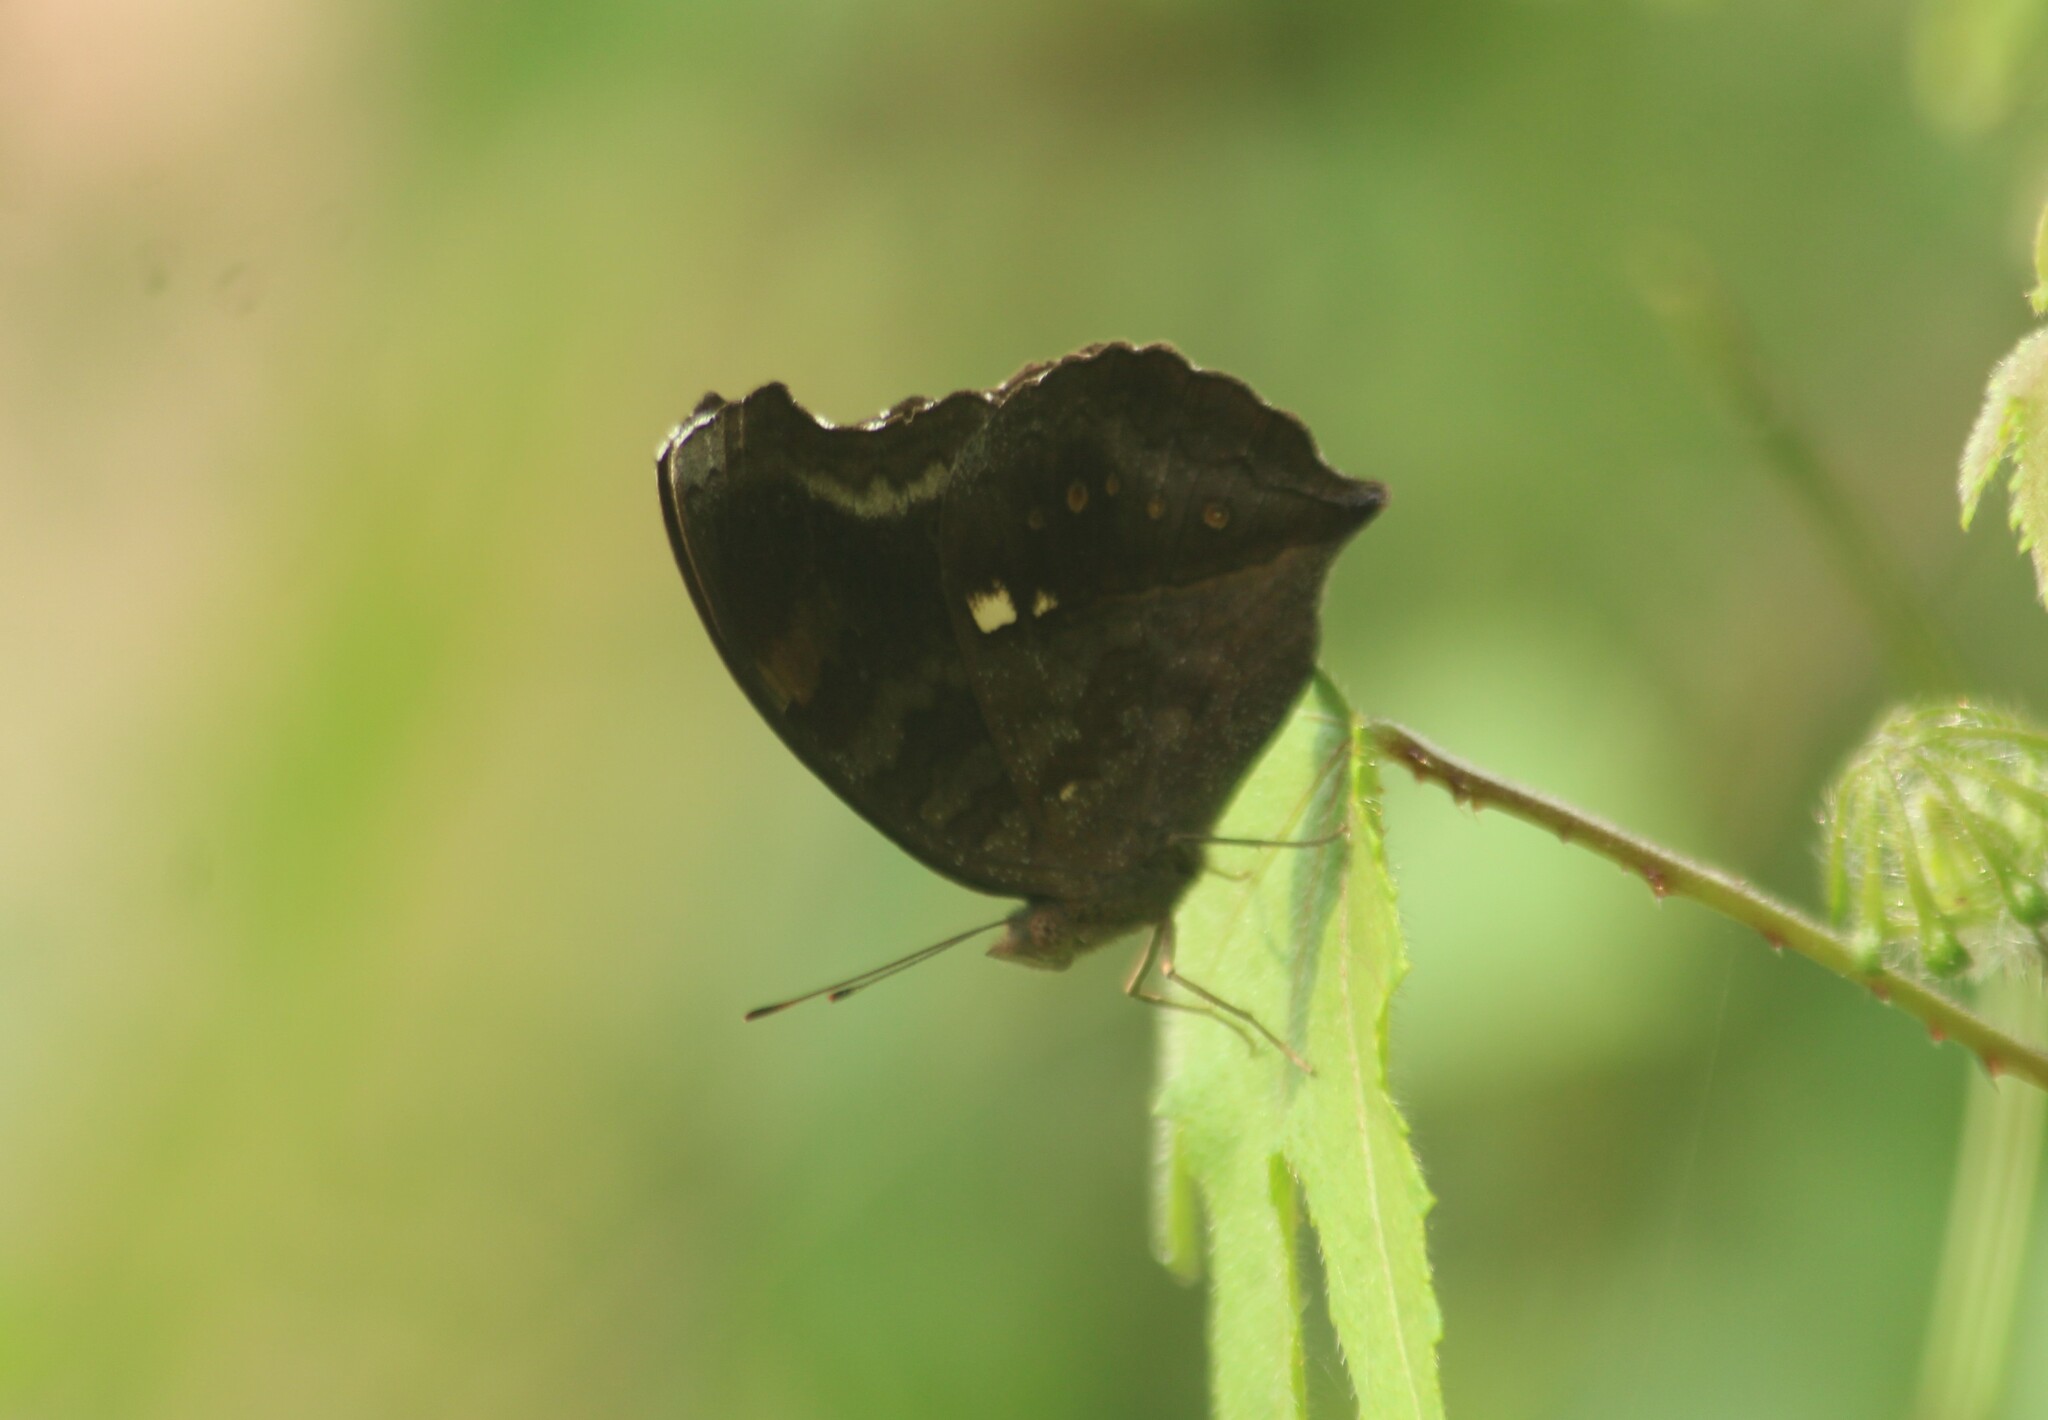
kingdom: Animalia
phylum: Arthropoda
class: Insecta
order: Lepidoptera
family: Nymphalidae
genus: Junonia
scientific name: Junonia iphita
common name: Chocolate pansy
